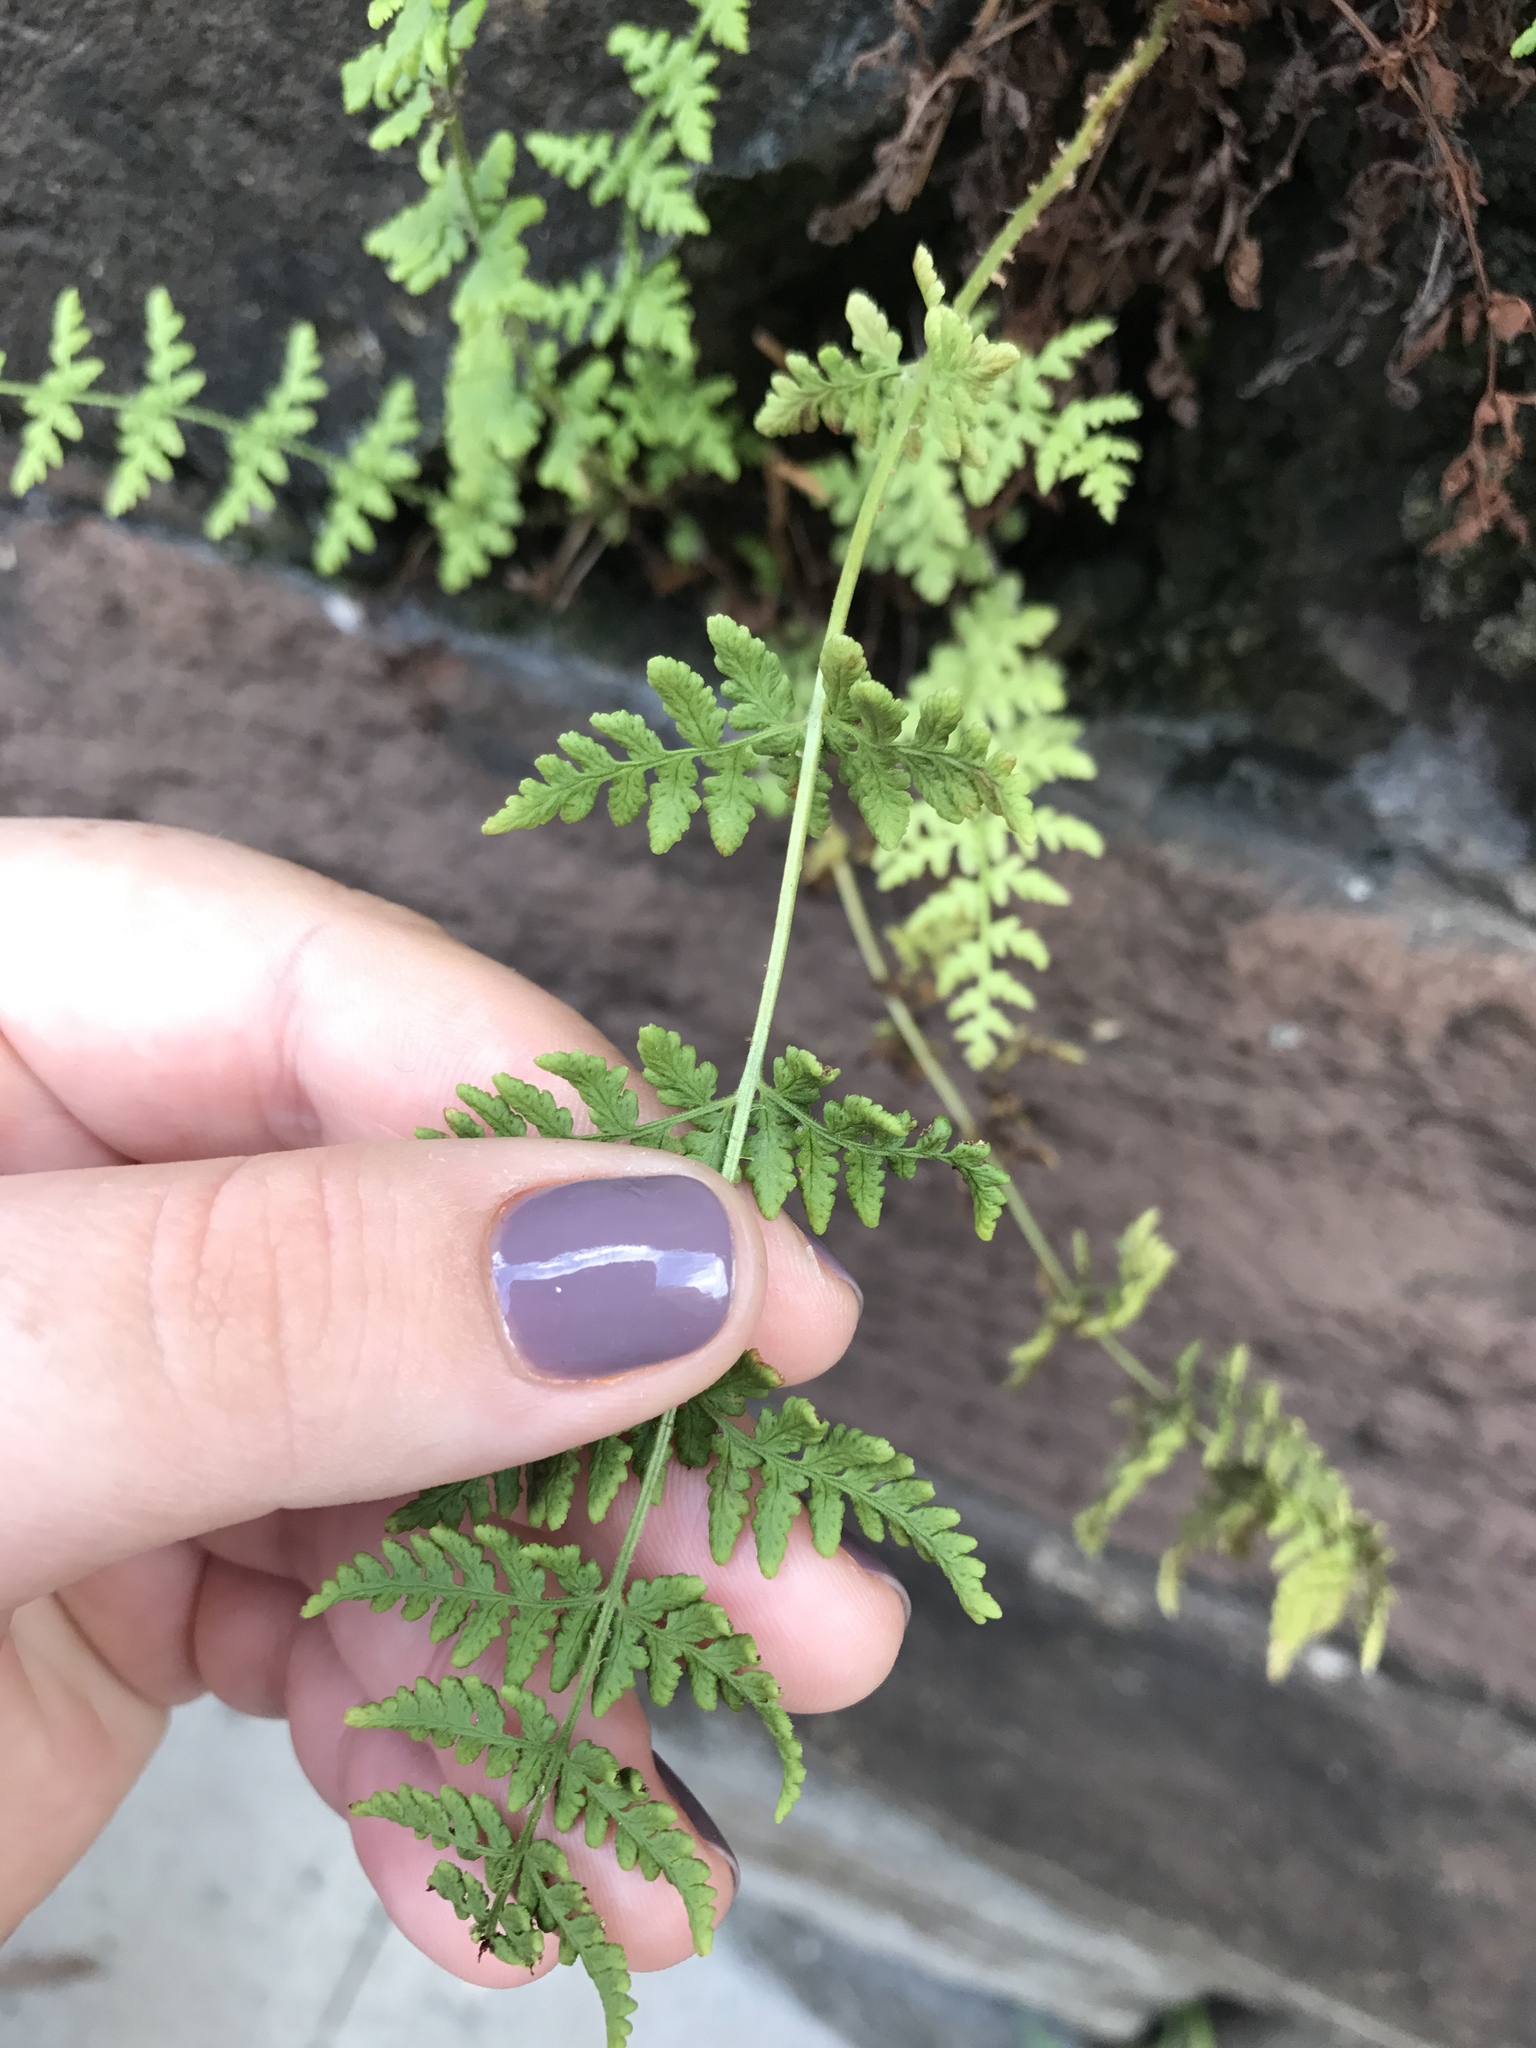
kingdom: Plantae
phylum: Tracheophyta
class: Polypodiopsida
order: Polypodiales
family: Woodsiaceae
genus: Physematium
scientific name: Physematium obtusum
